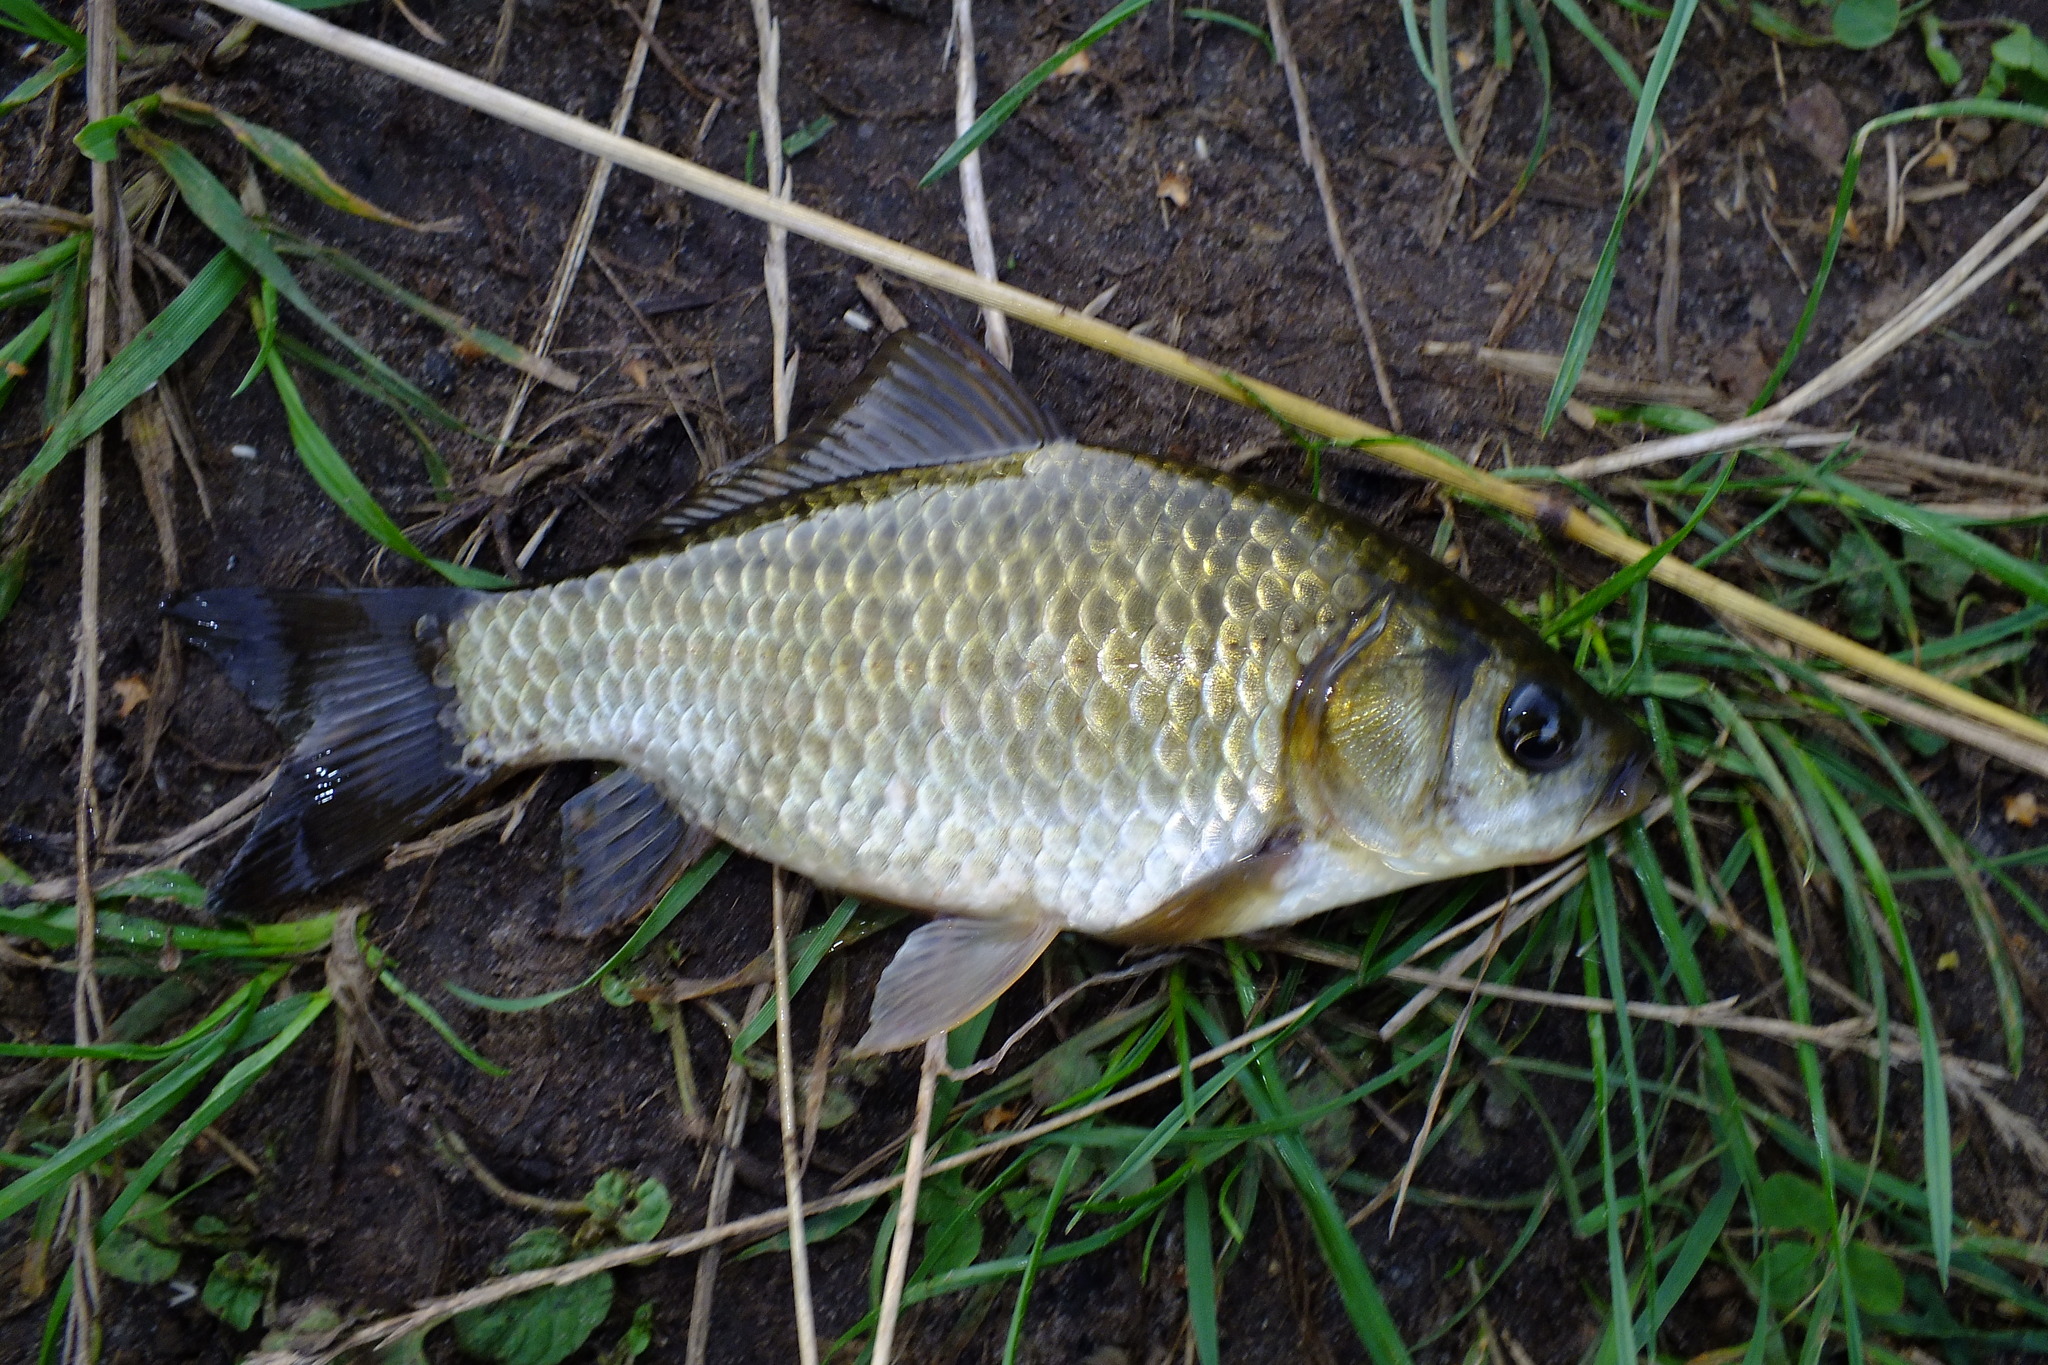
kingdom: Animalia
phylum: Chordata
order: Cypriniformes
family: Cyprinidae
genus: Carassius
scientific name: Carassius gibelio
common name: Prussian carp
